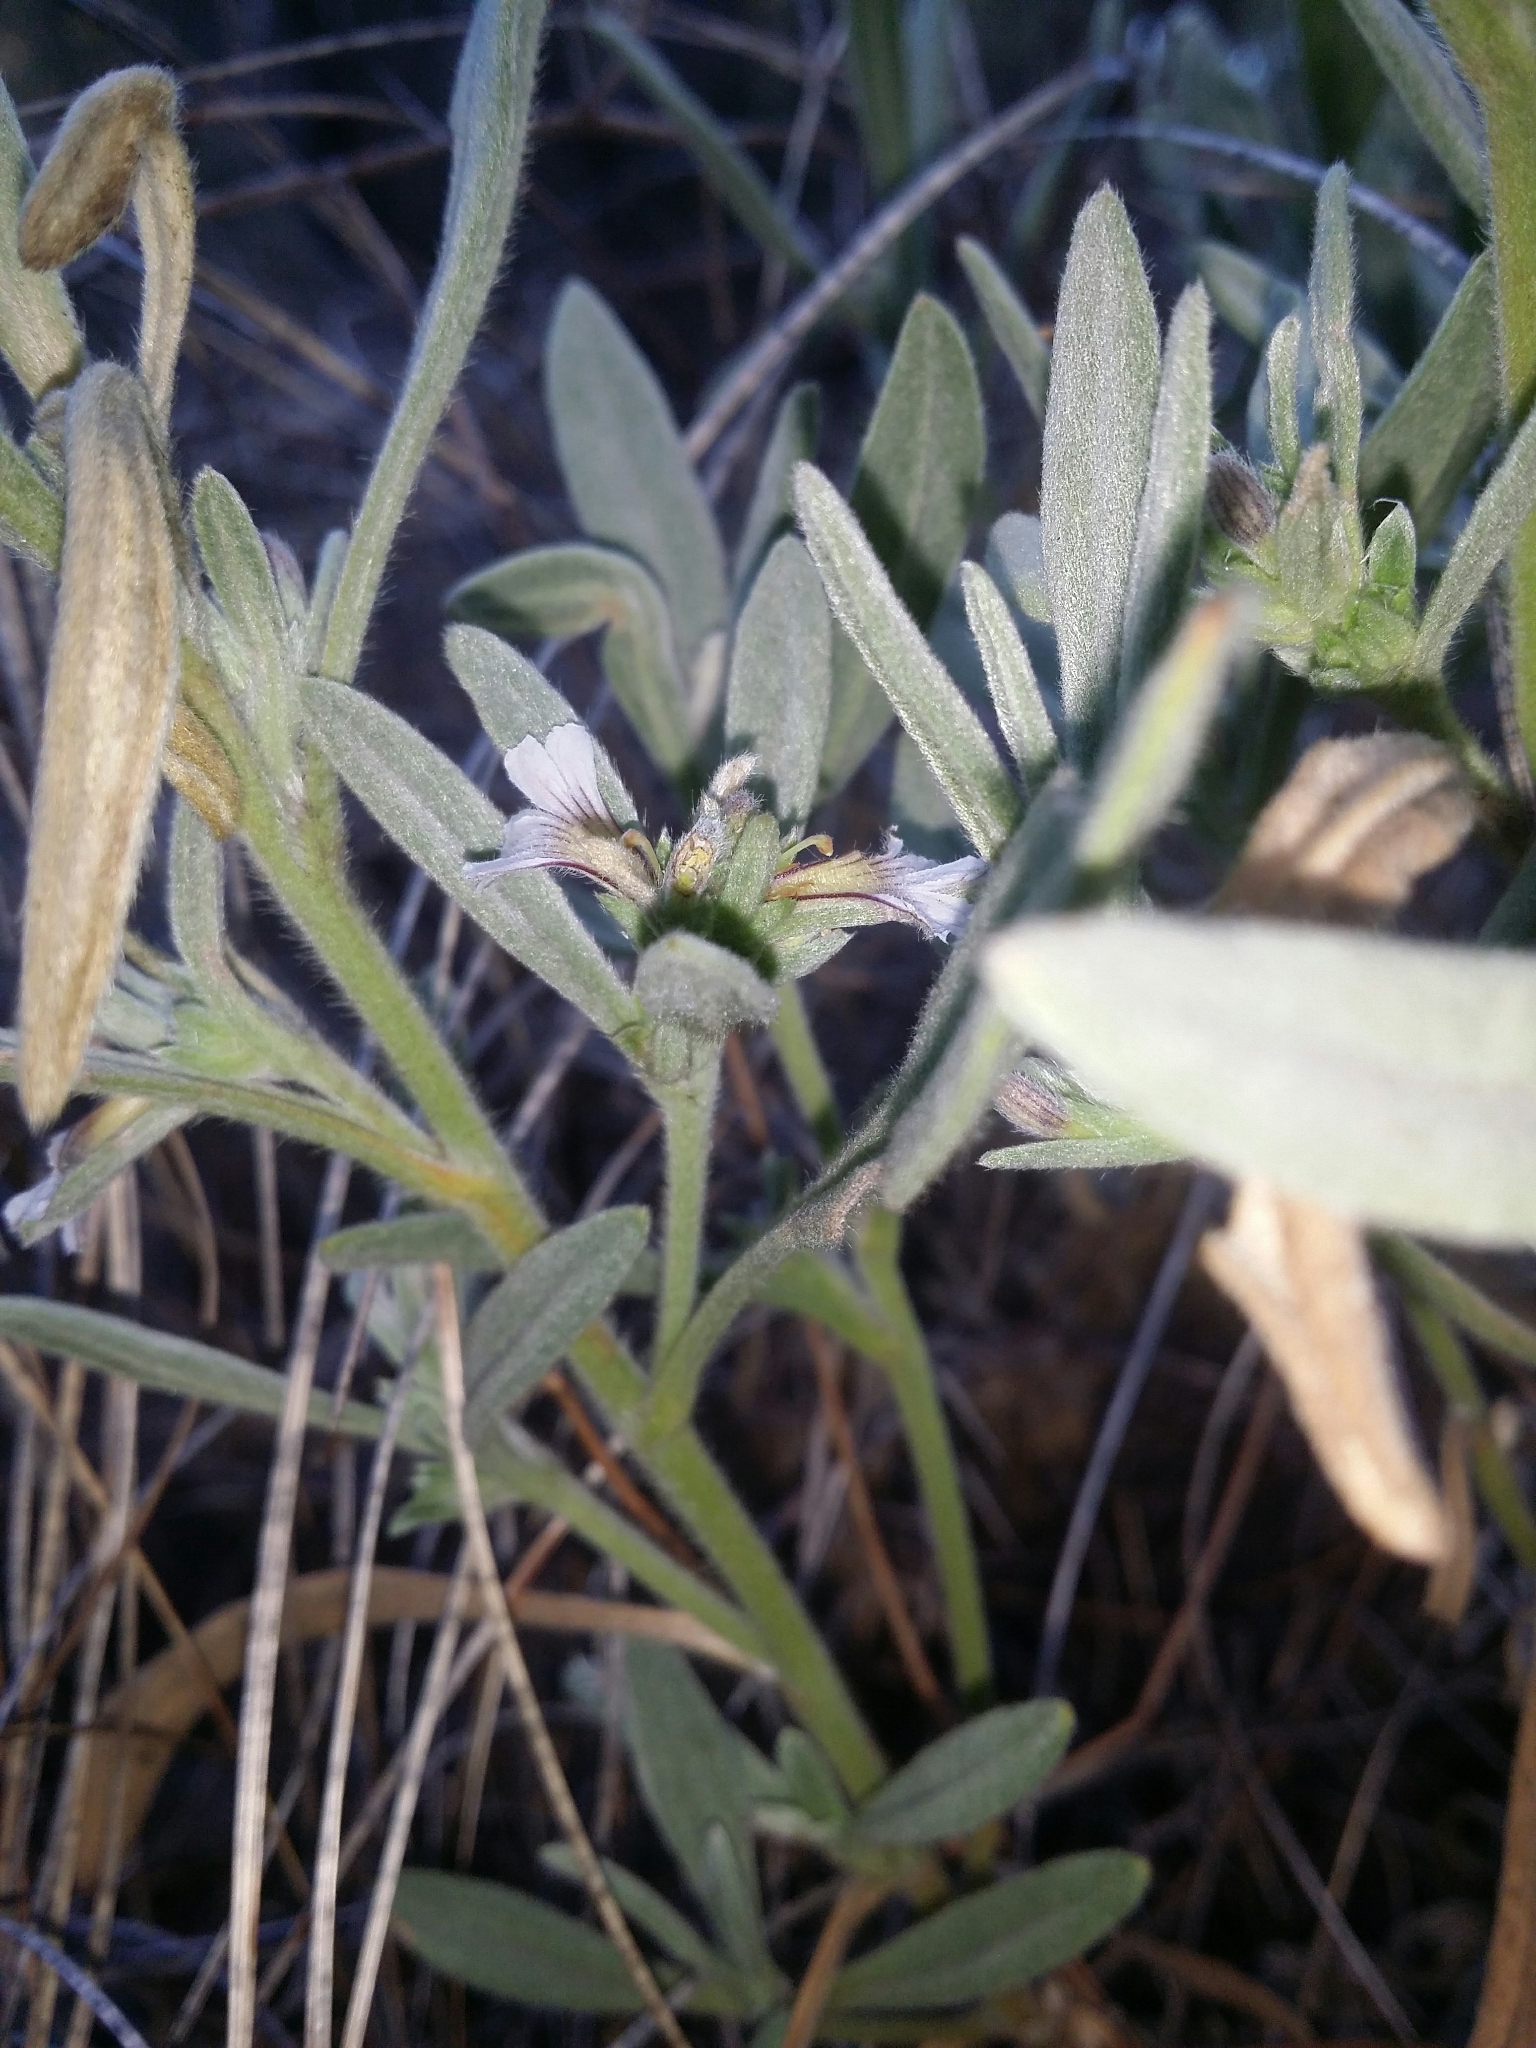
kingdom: Plantae
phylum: Tracheophyta
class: Magnoliopsida
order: Asterales
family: Goodeniaceae
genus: Scaevola
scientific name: Scaevola canescens
